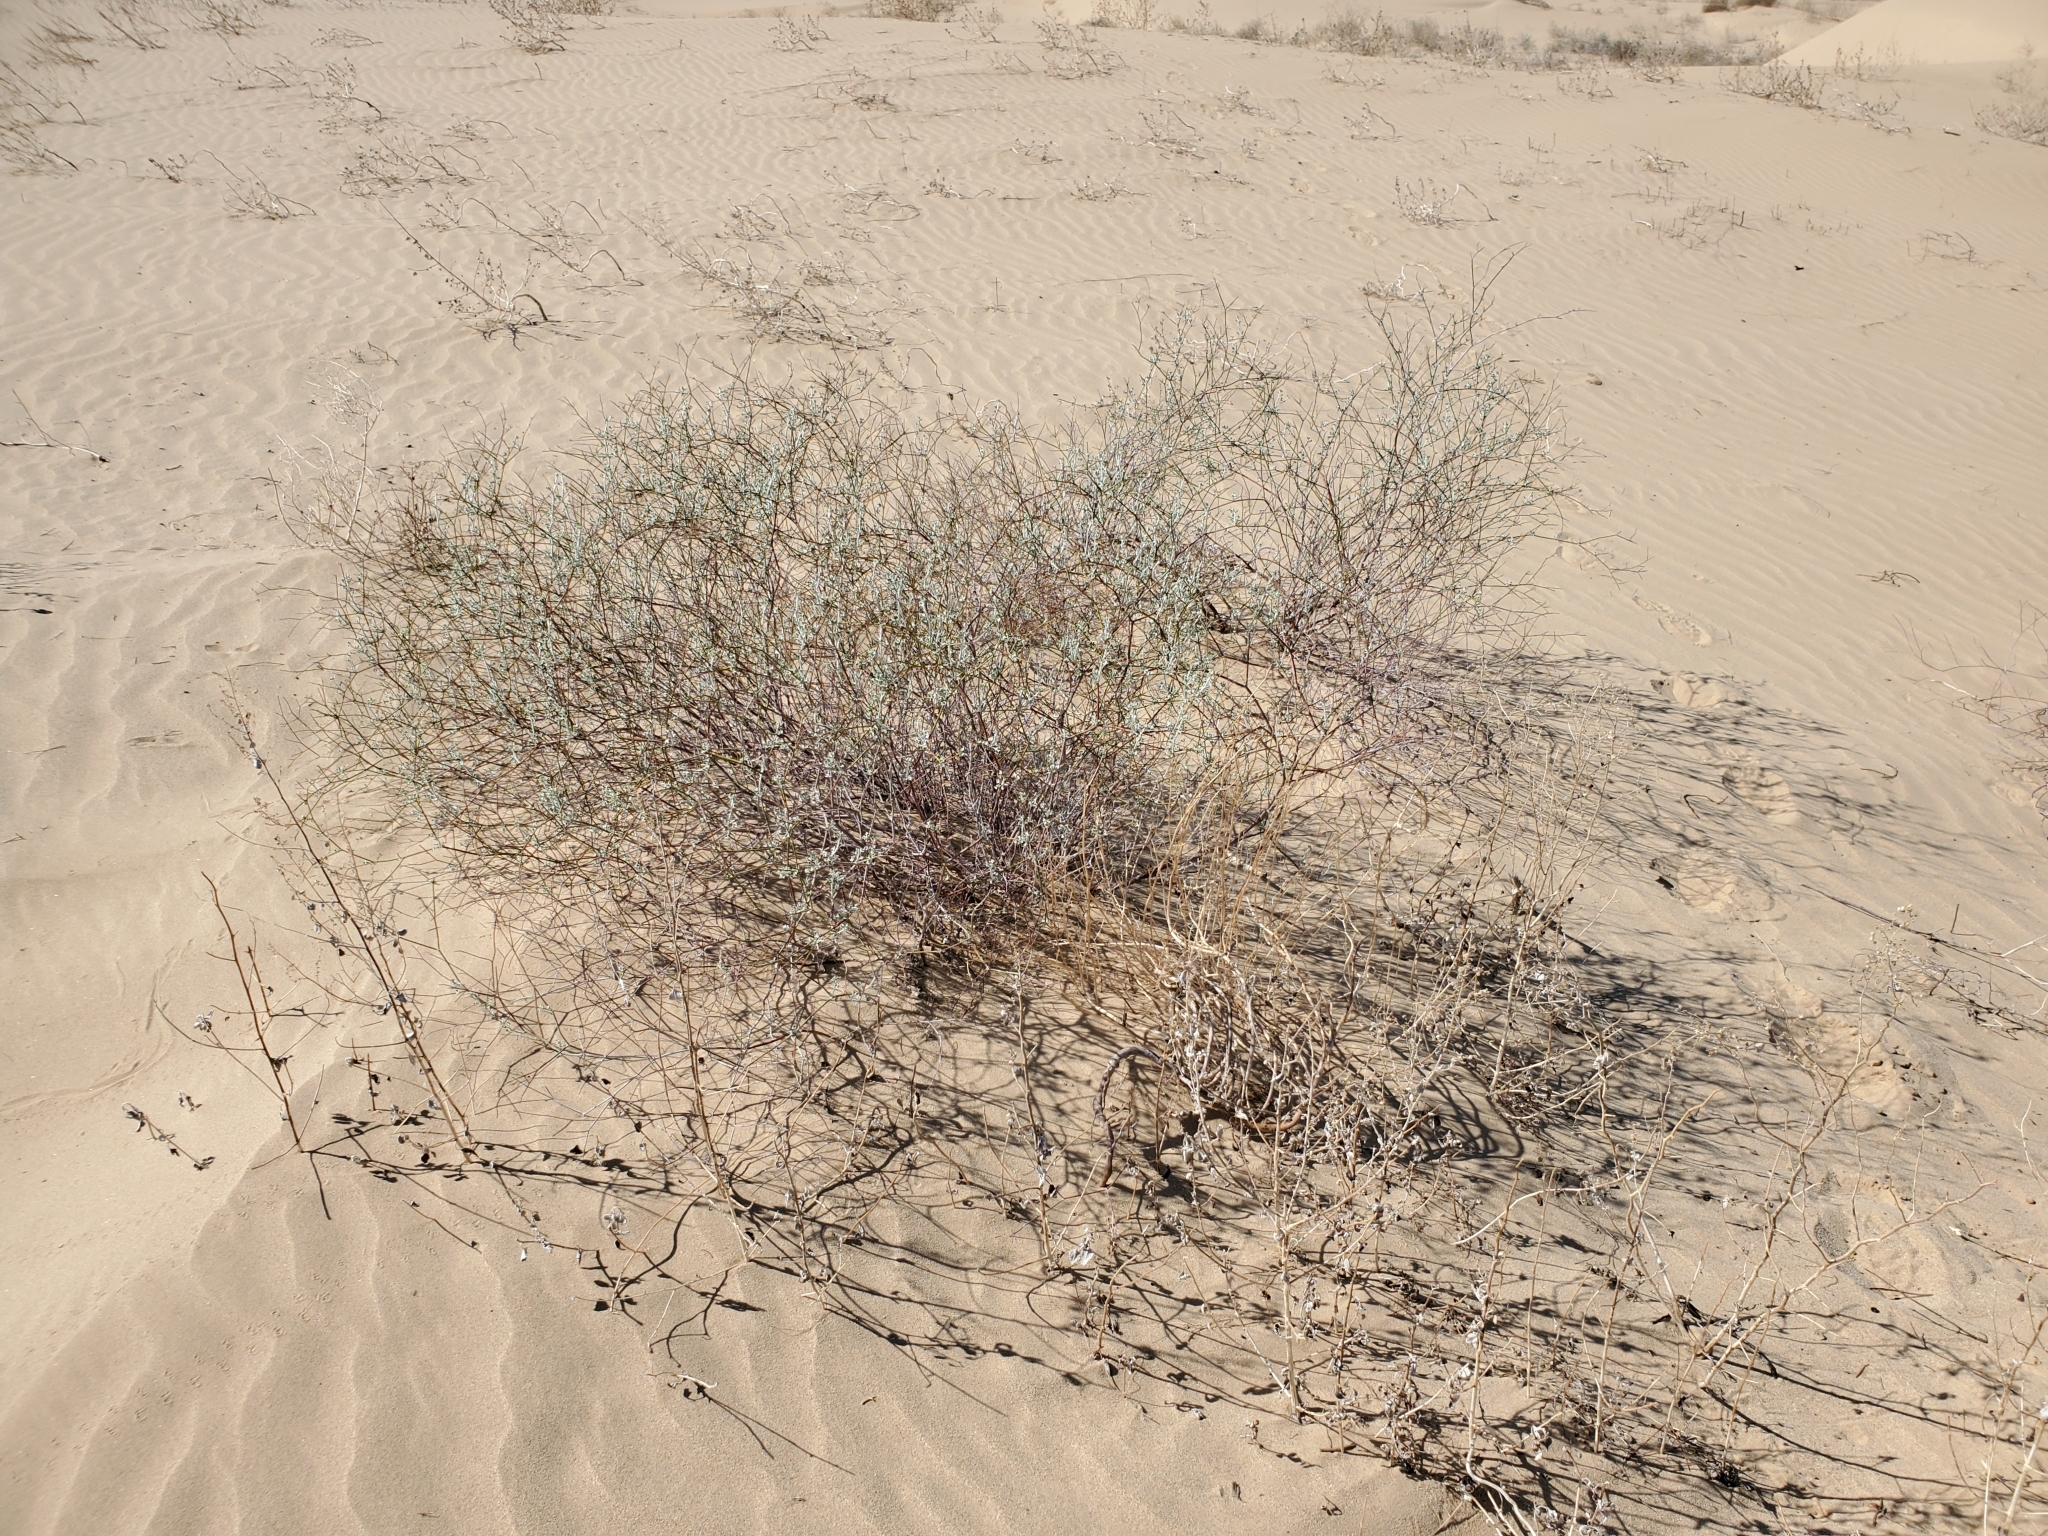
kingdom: Plantae
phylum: Tracheophyta
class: Magnoliopsida
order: Caryophyllales
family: Polygonaceae
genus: Eriogonum
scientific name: Eriogonum deserticola
